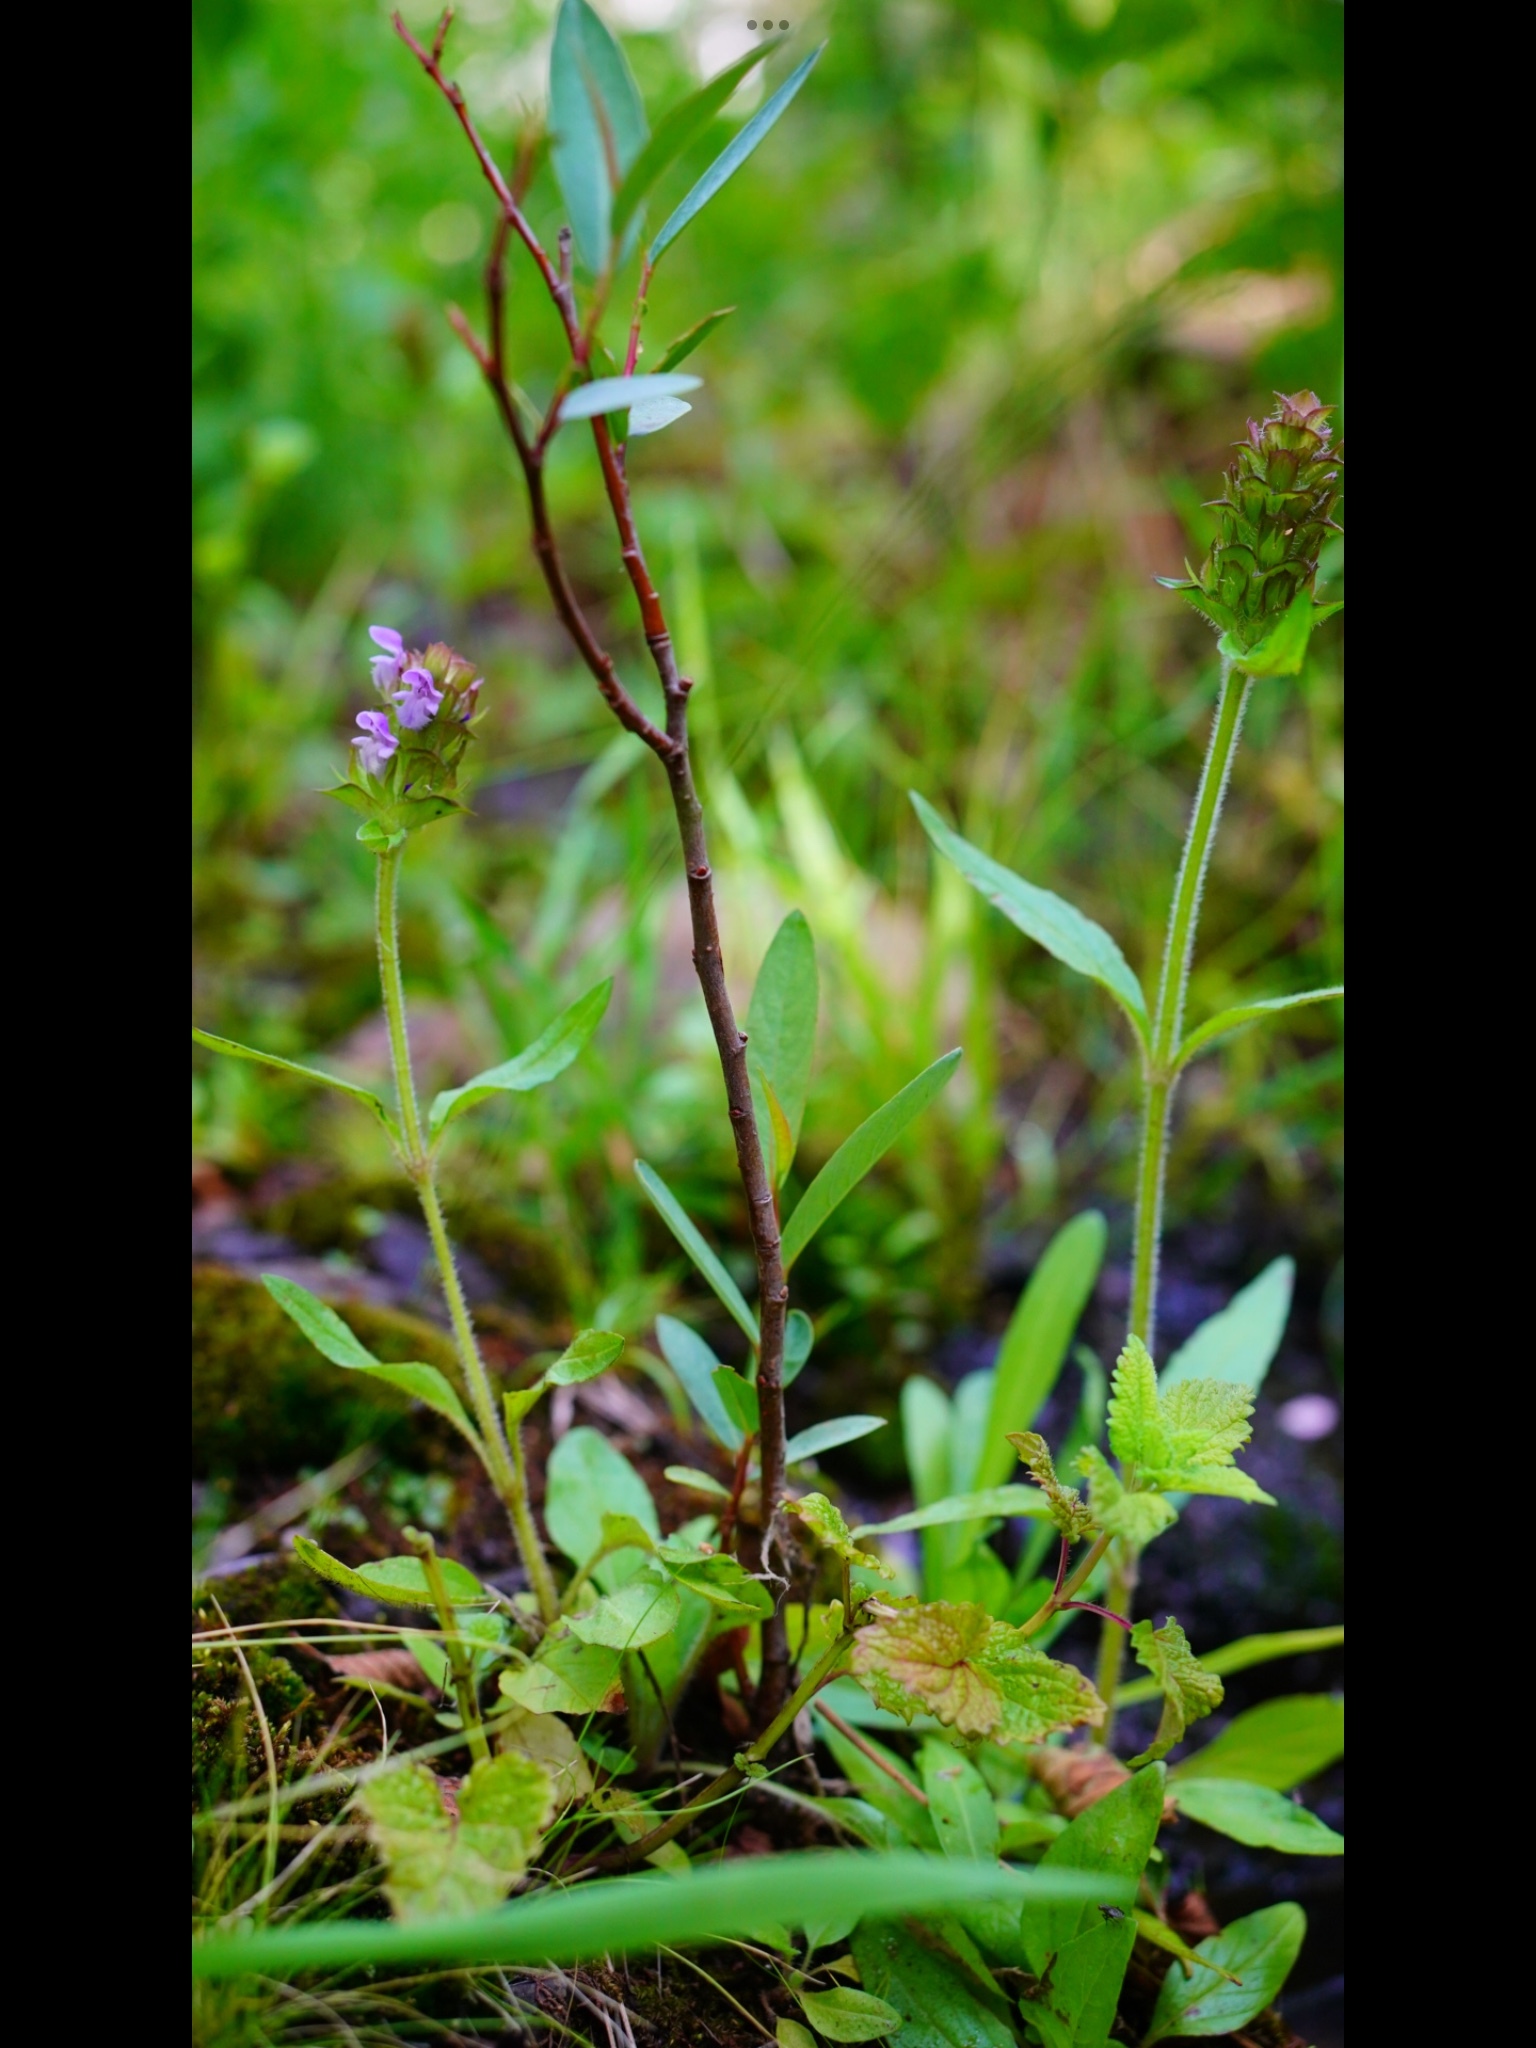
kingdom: Plantae
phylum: Tracheophyta
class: Magnoliopsida
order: Lamiales
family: Lamiaceae
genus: Prunella
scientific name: Prunella vulgaris
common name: Heal-all
